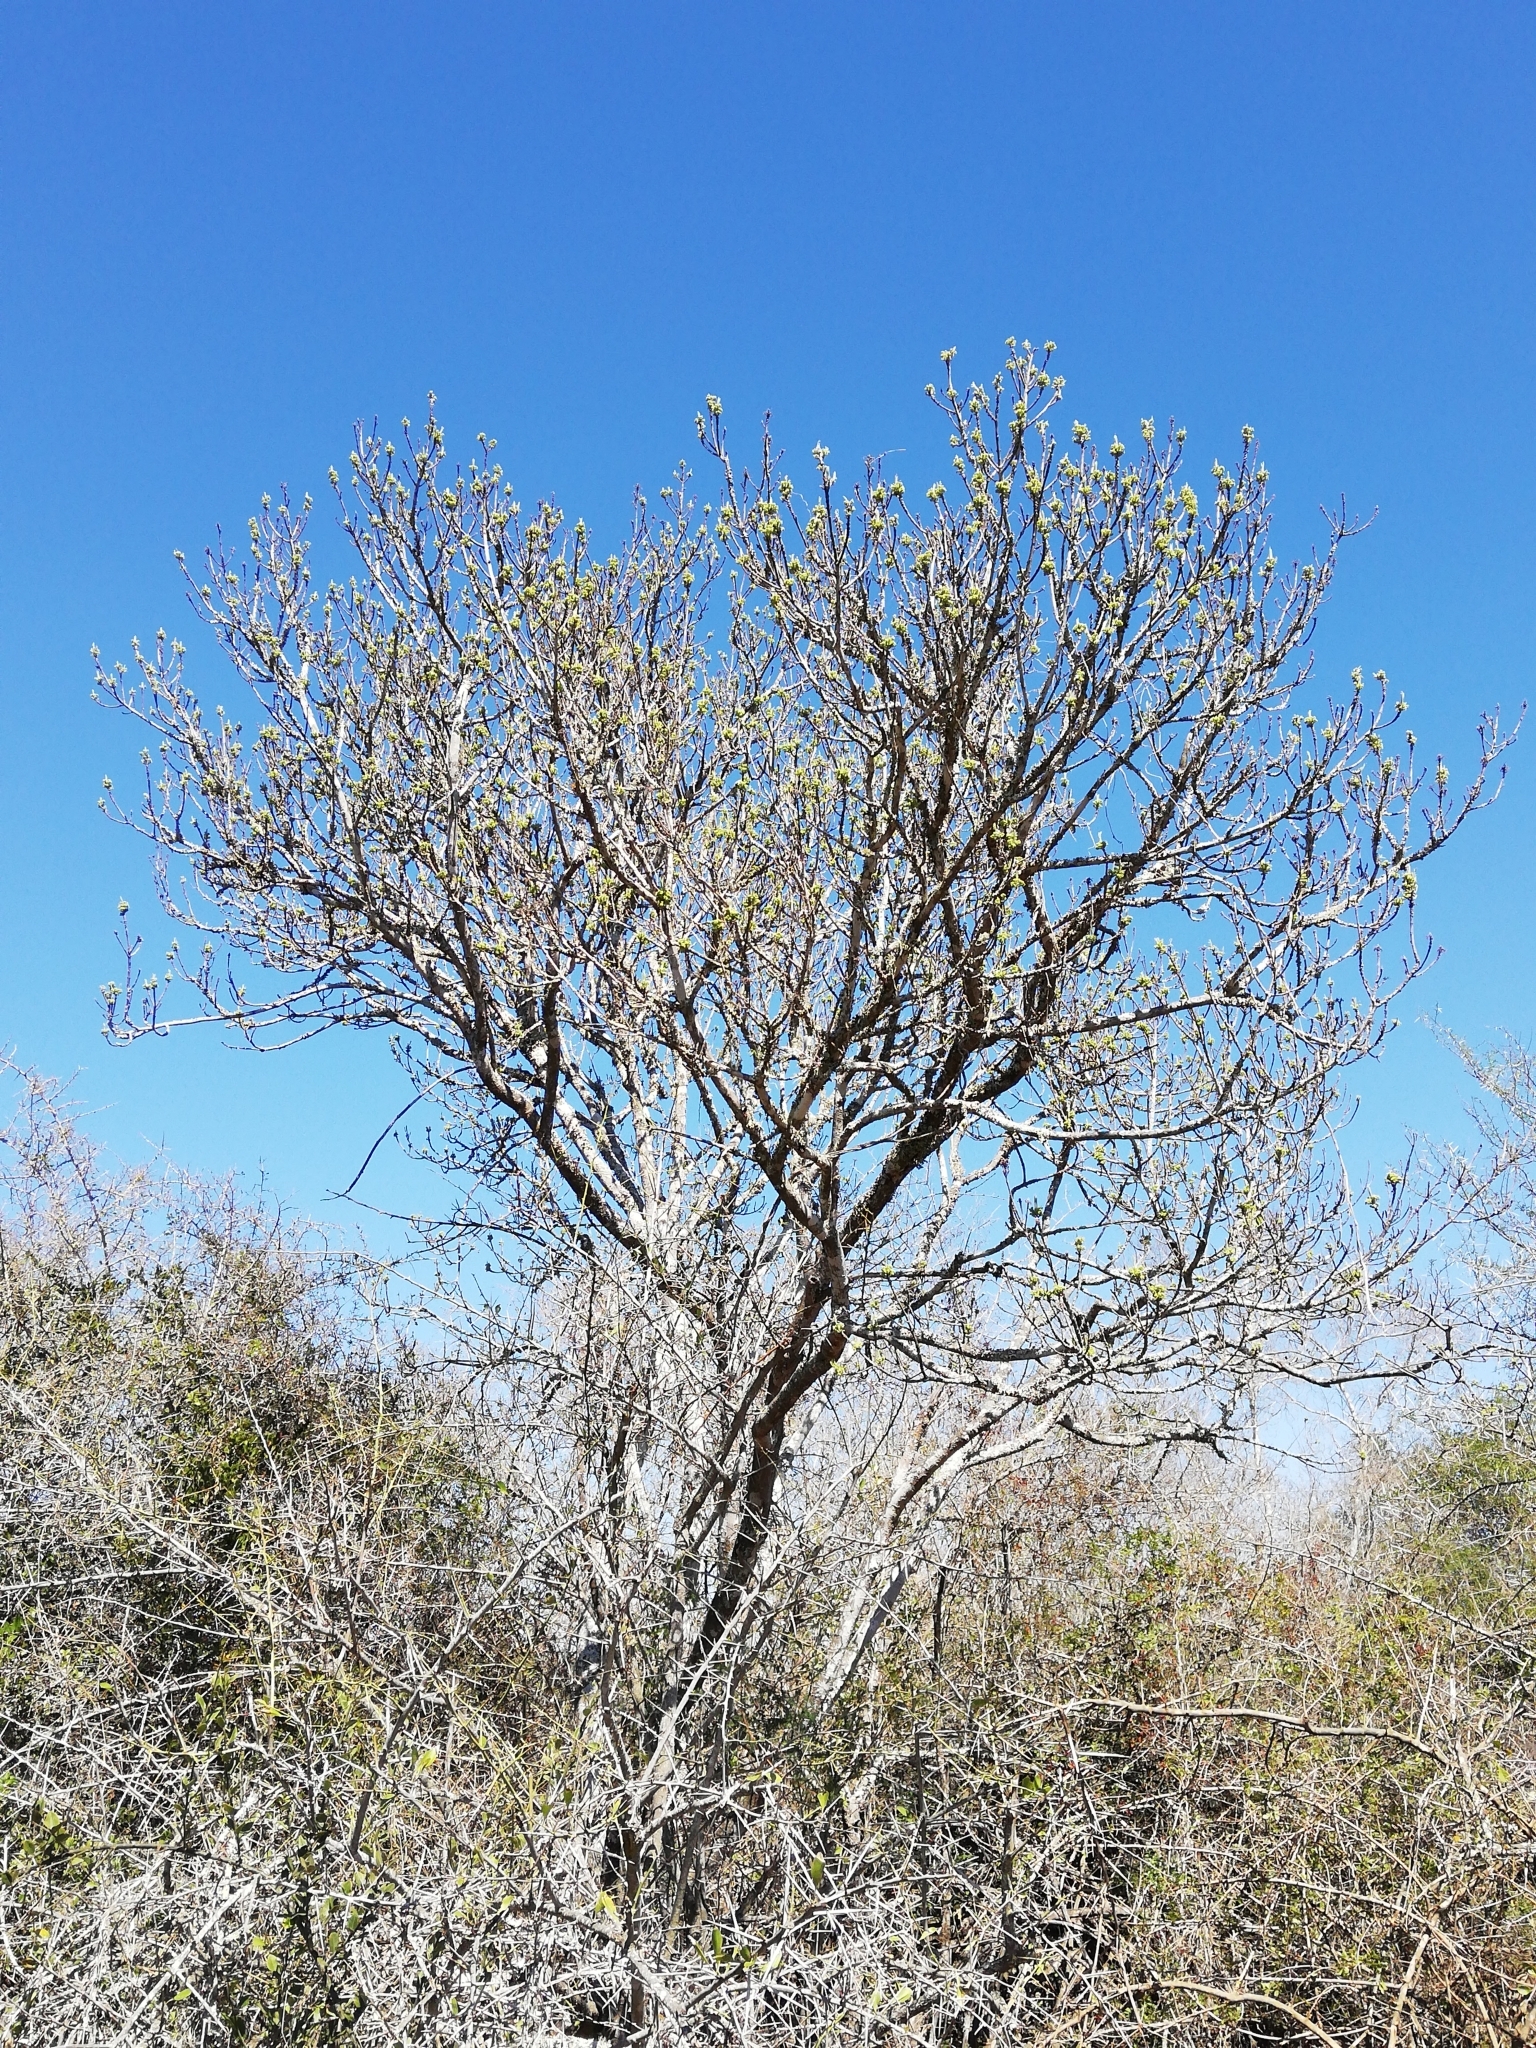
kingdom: Plantae
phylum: Tracheophyta
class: Magnoliopsida
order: Sapindales
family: Rutaceae
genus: Ptaeroxylon
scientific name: Ptaeroxylon obliquum
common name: Sneezewood
